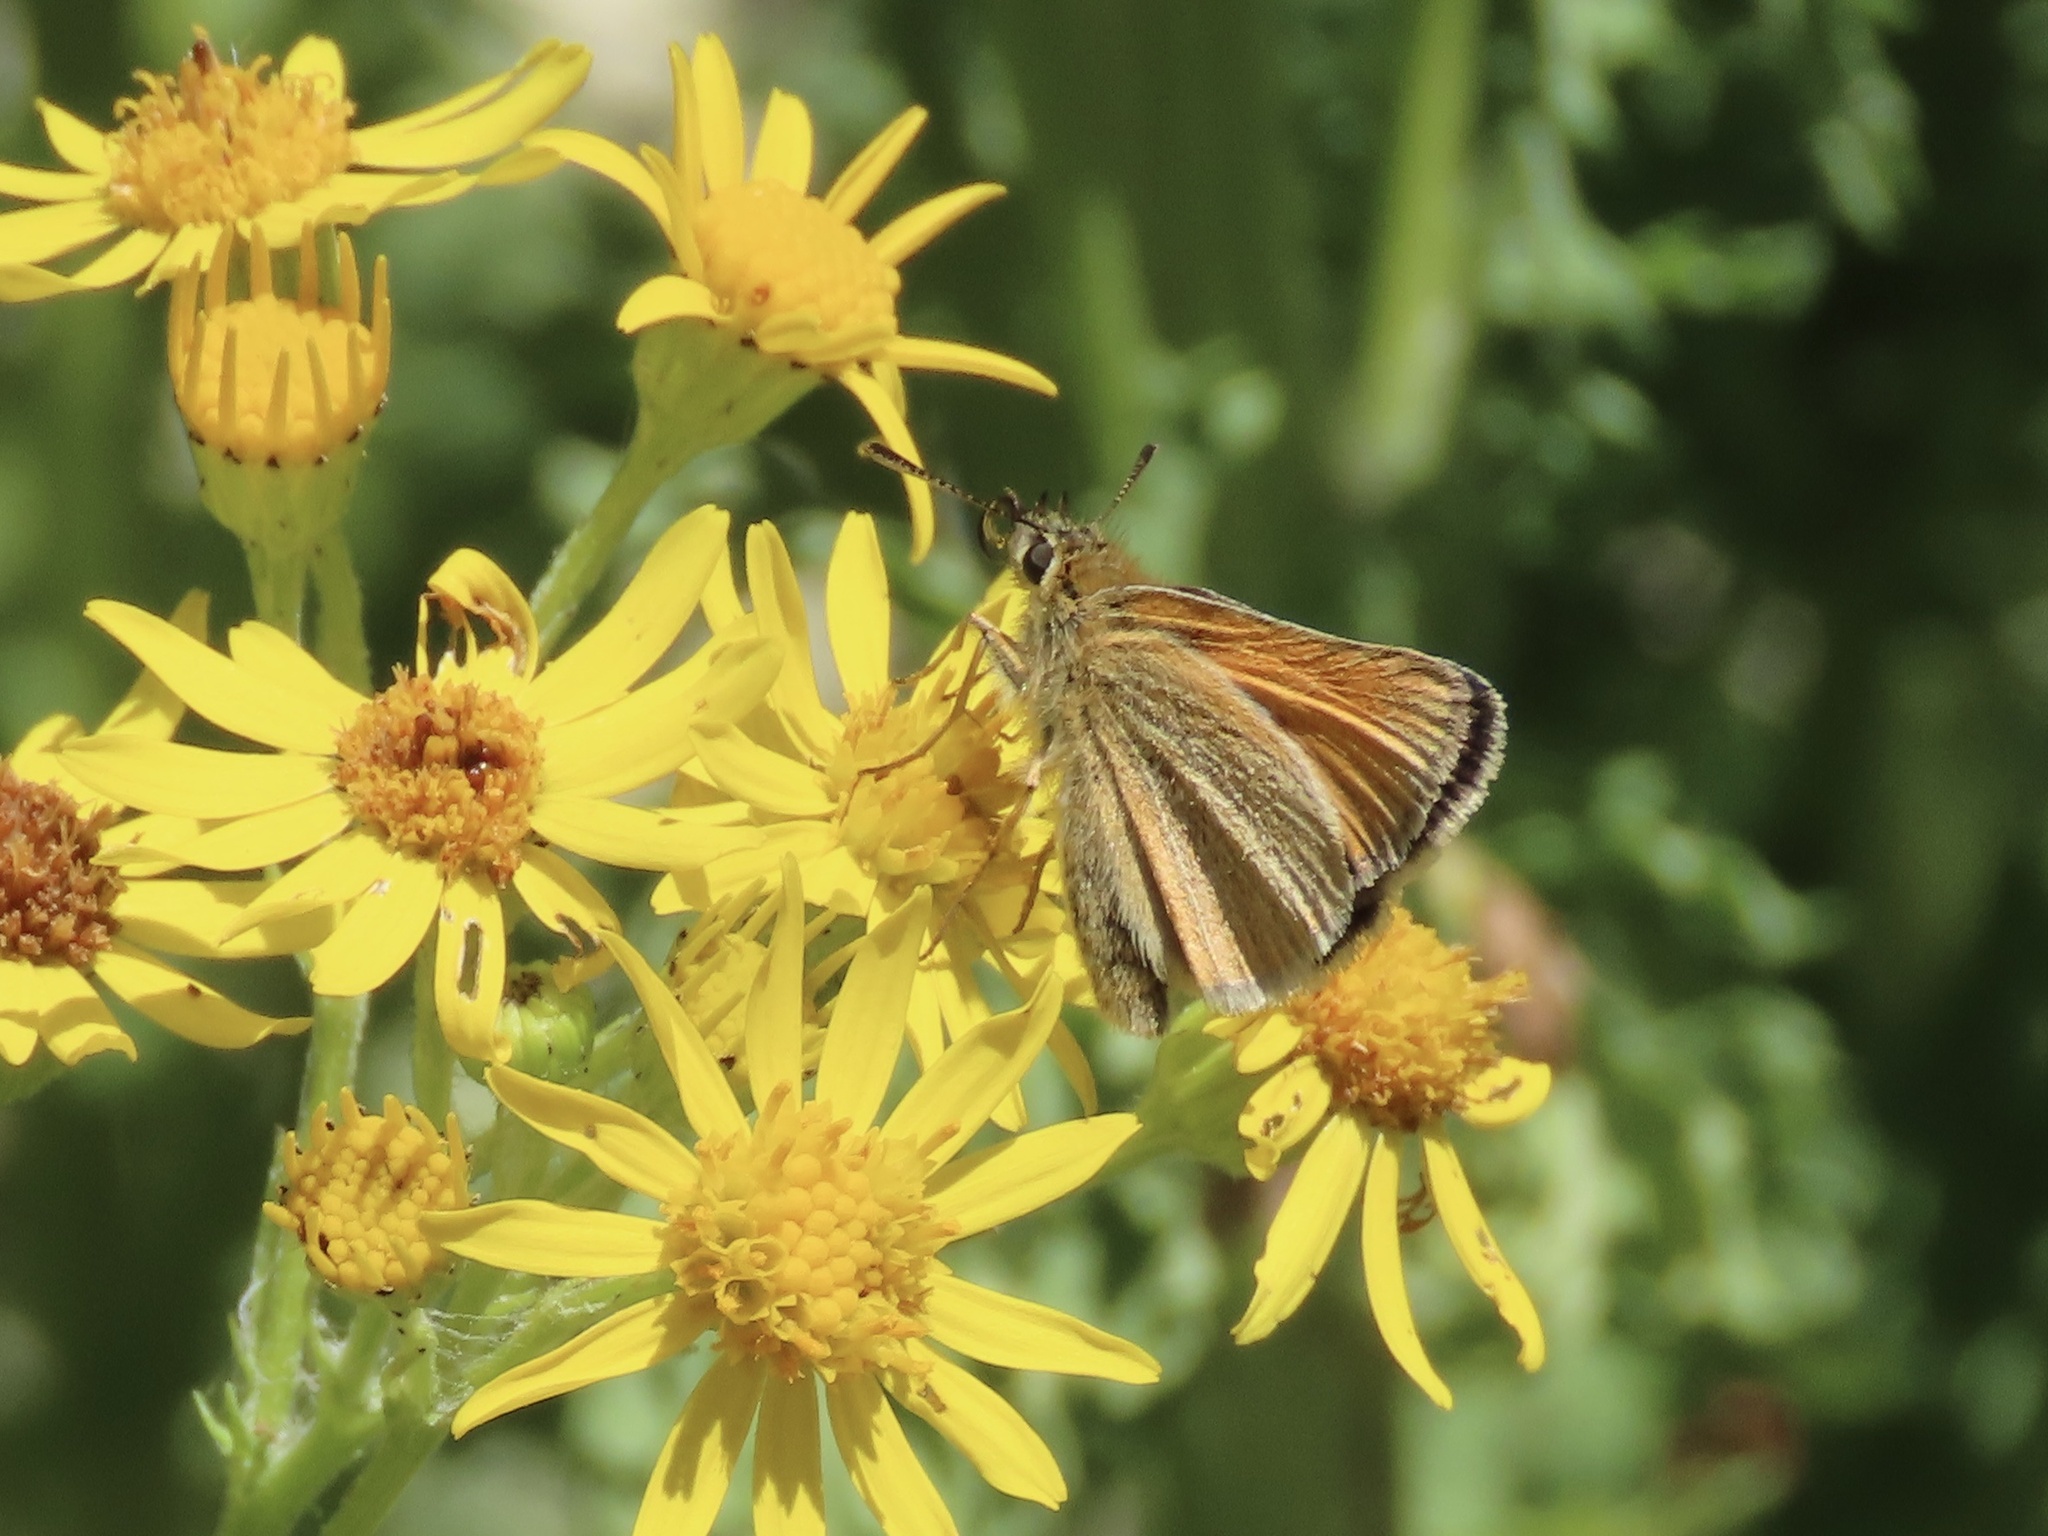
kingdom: Animalia
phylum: Arthropoda
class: Insecta
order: Lepidoptera
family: Hesperiidae
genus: Thymelicus
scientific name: Thymelicus lineola
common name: Essex skipper
